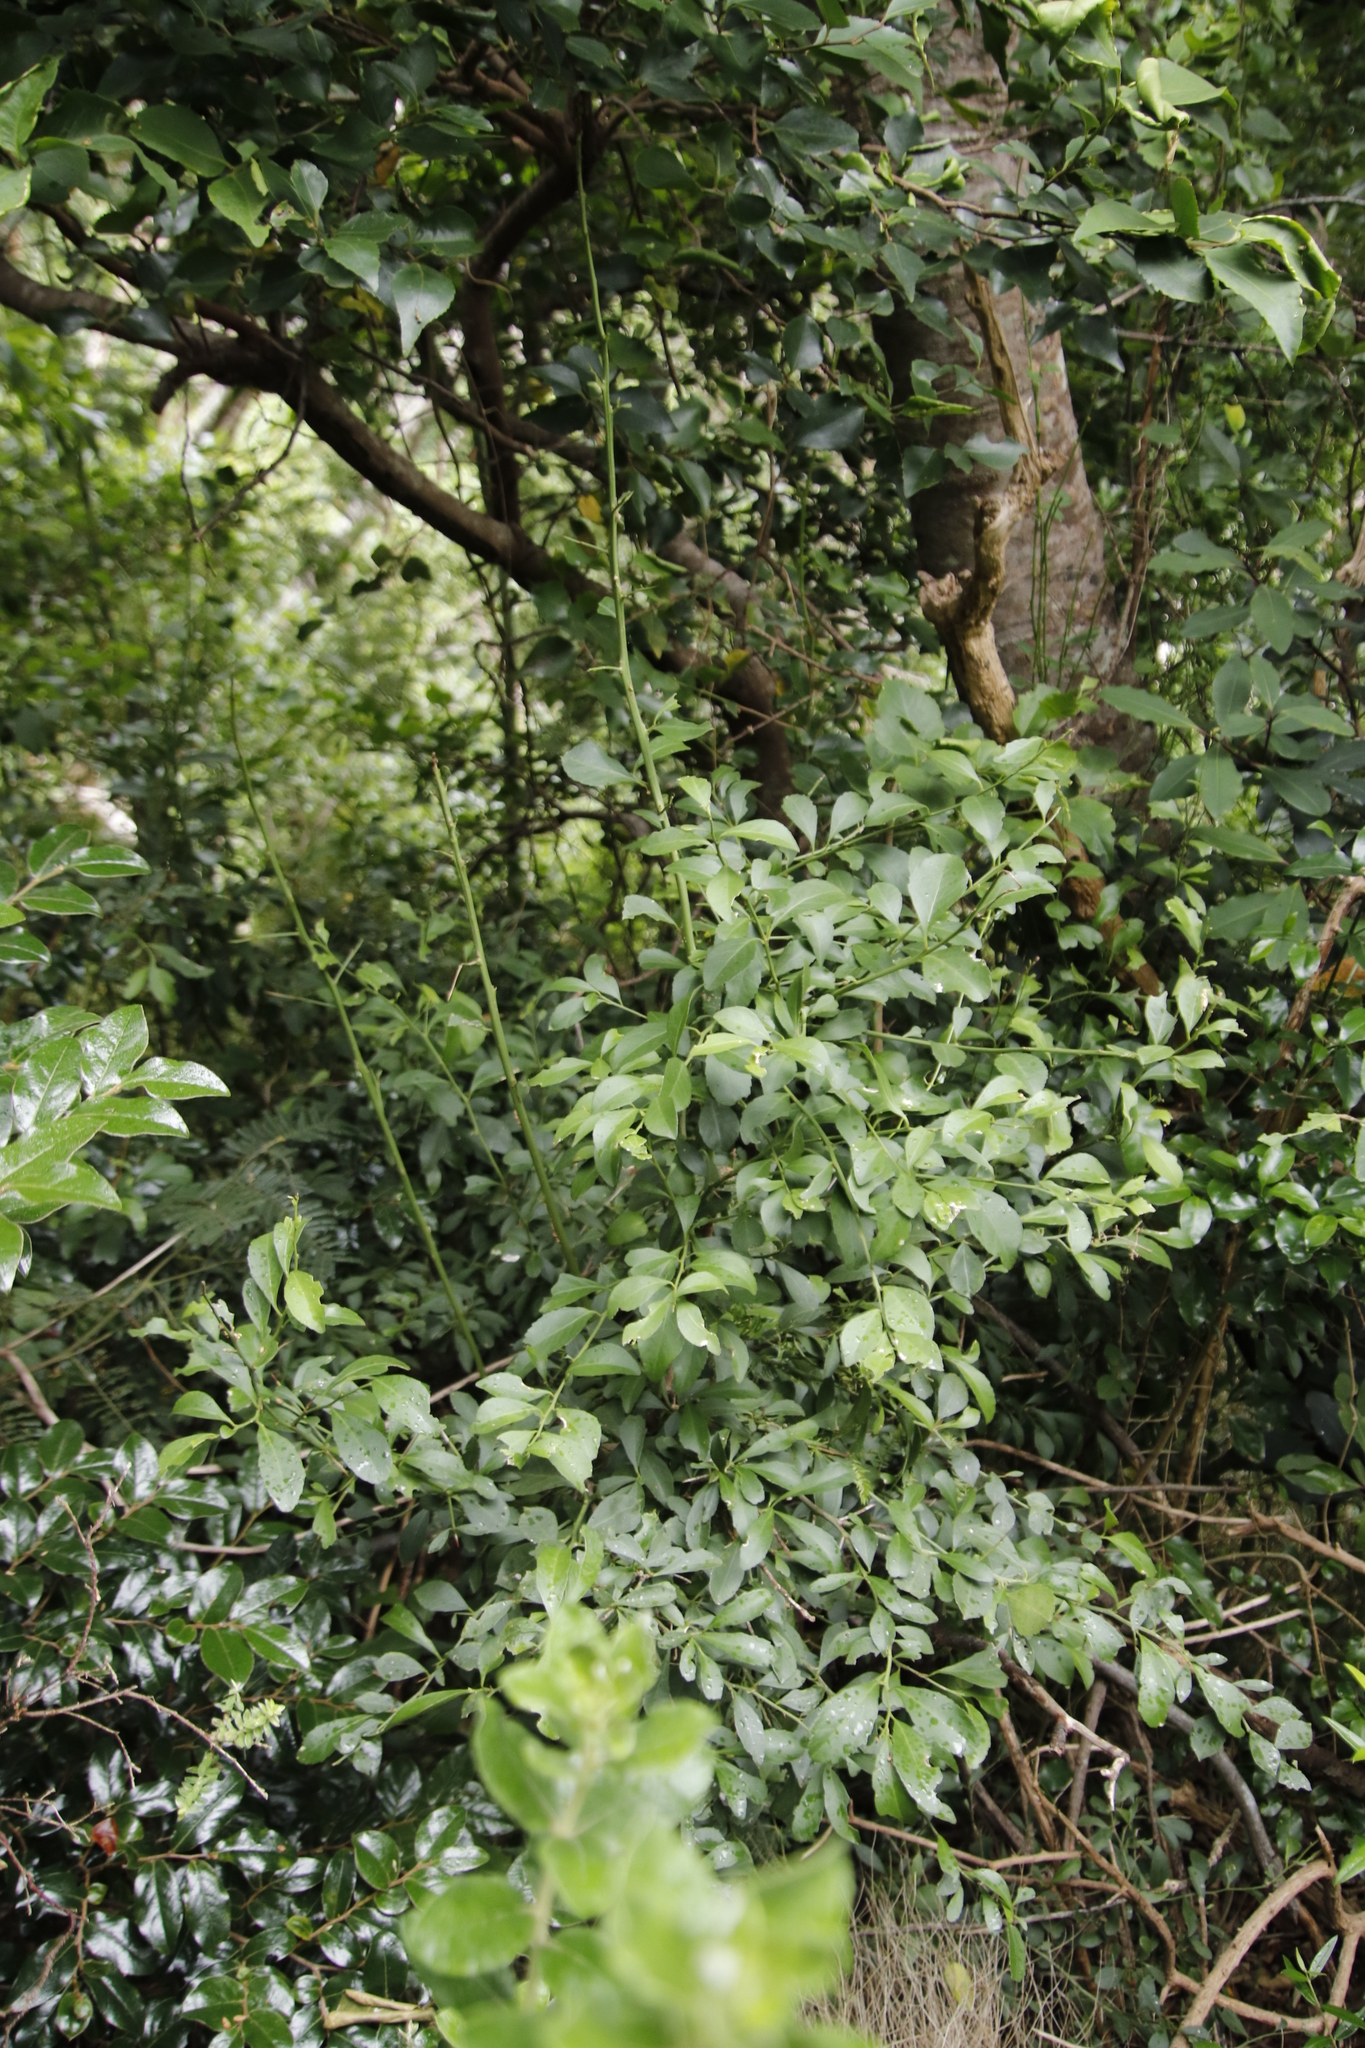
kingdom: Plantae
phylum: Tracheophyta
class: Magnoliopsida
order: Celastrales
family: Celastraceae
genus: Gymnosporia
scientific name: Gymnosporia buxifolia
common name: Common spike-thorn
